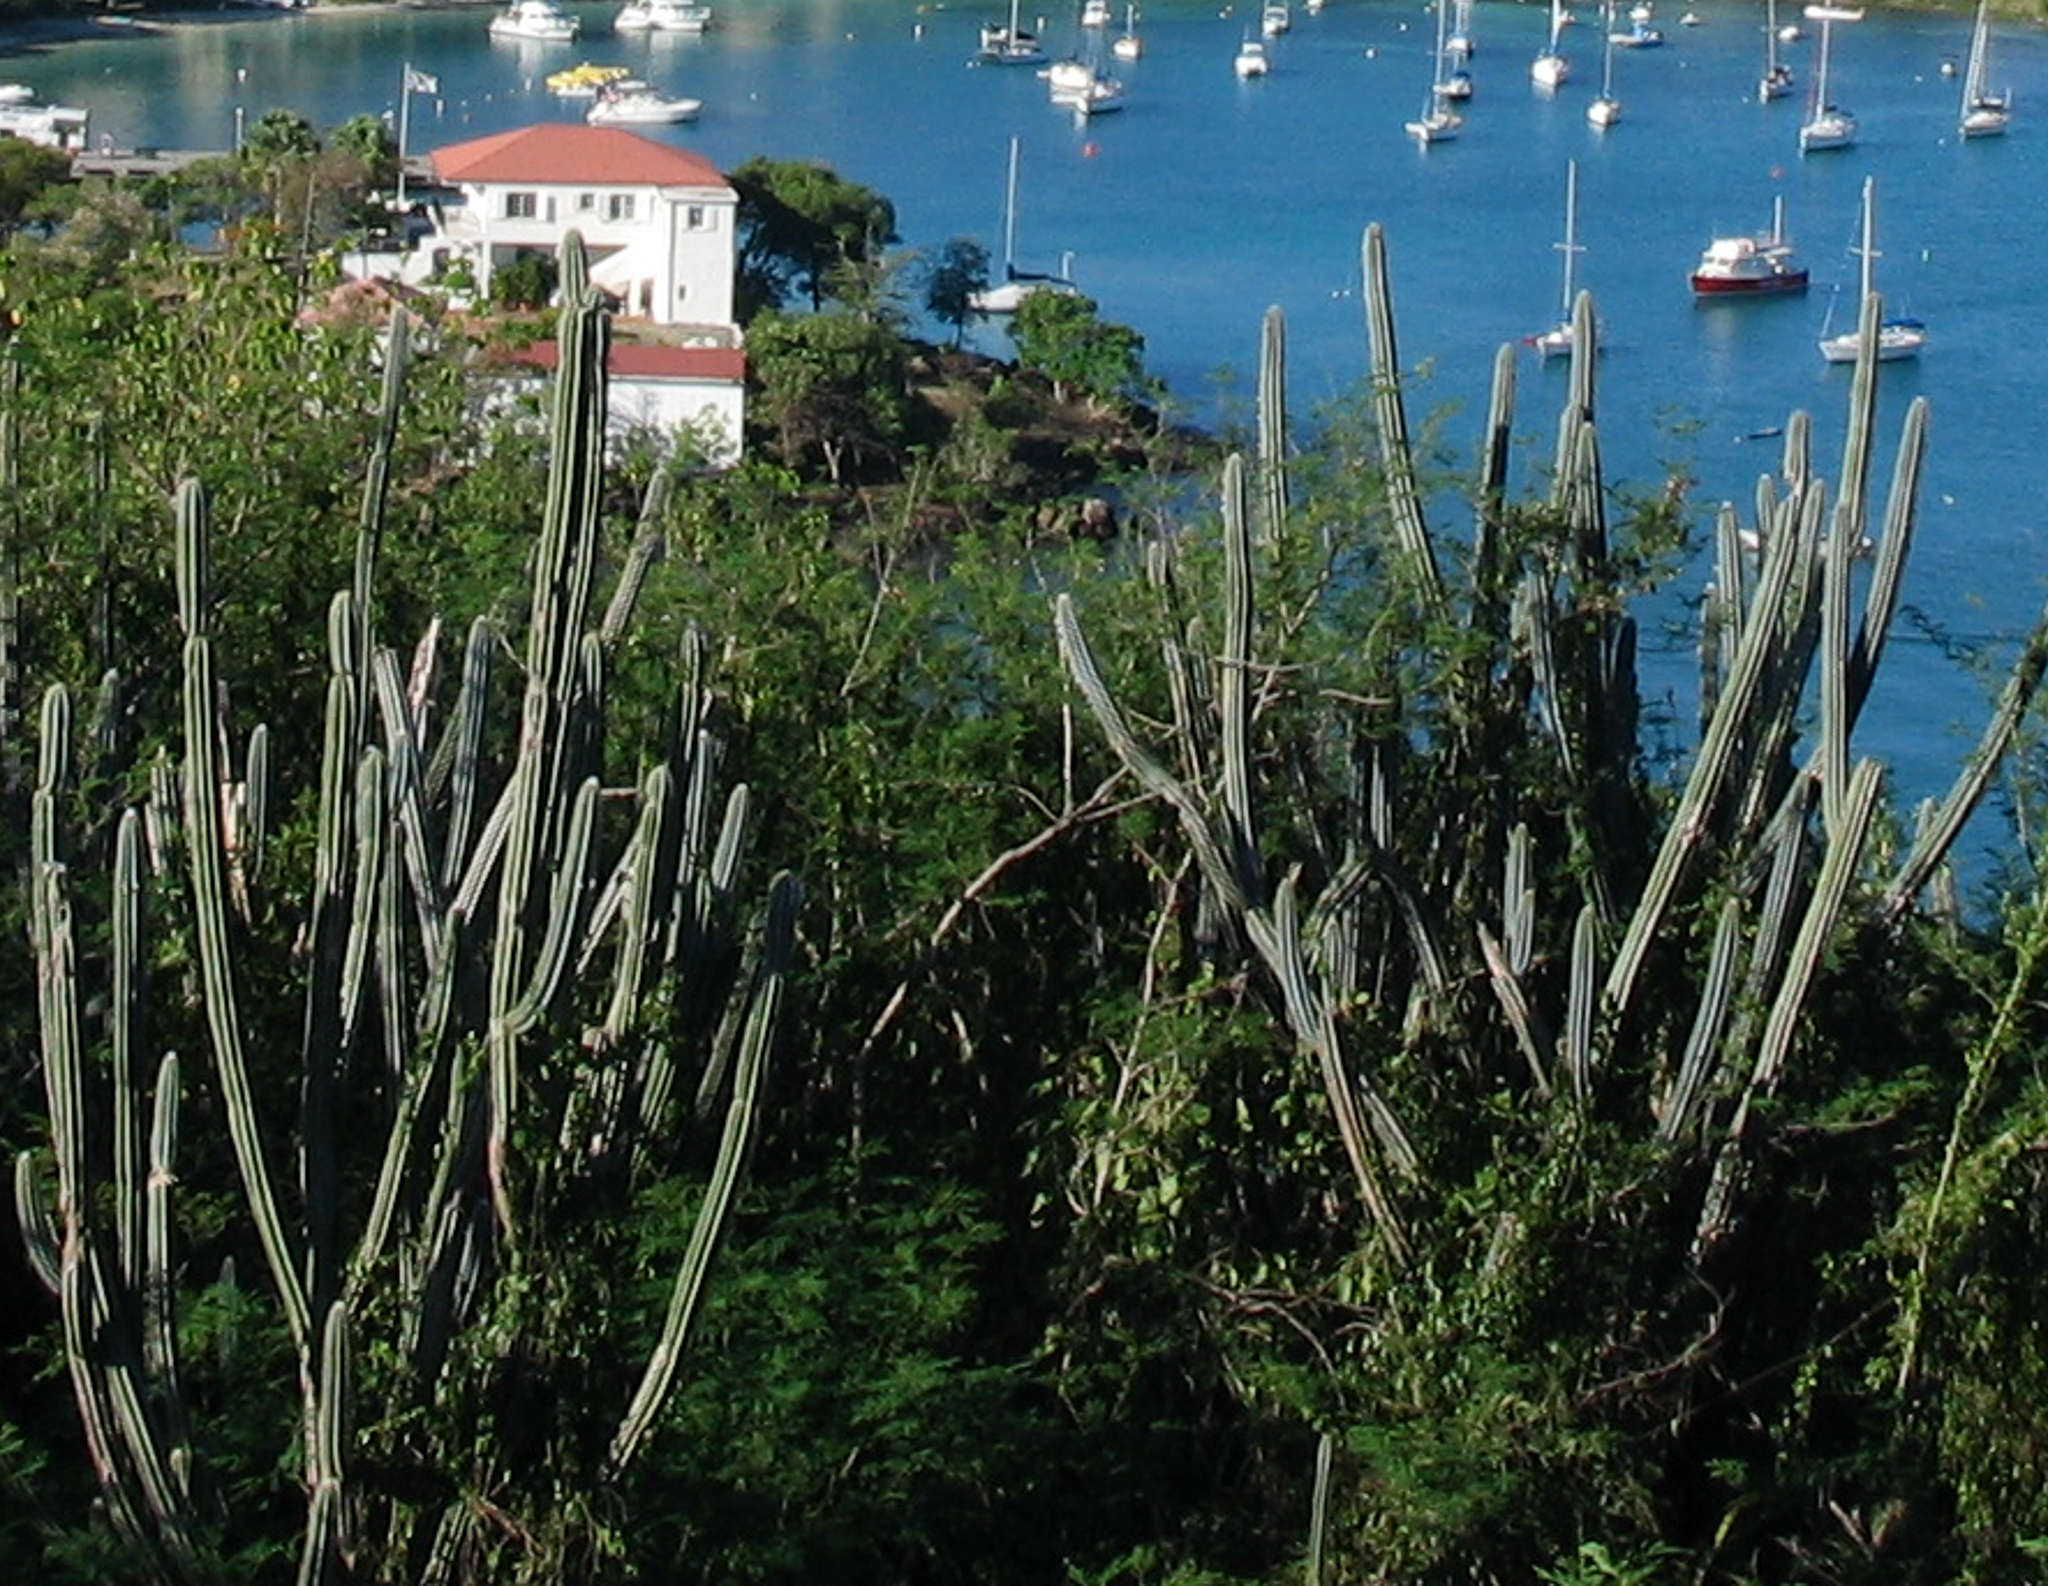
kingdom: Plantae
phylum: Tracheophyta
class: Magnoliopsida
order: Caryophyllales
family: Cactaceae
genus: Pilosocereus
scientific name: Pilosocereus armatus
